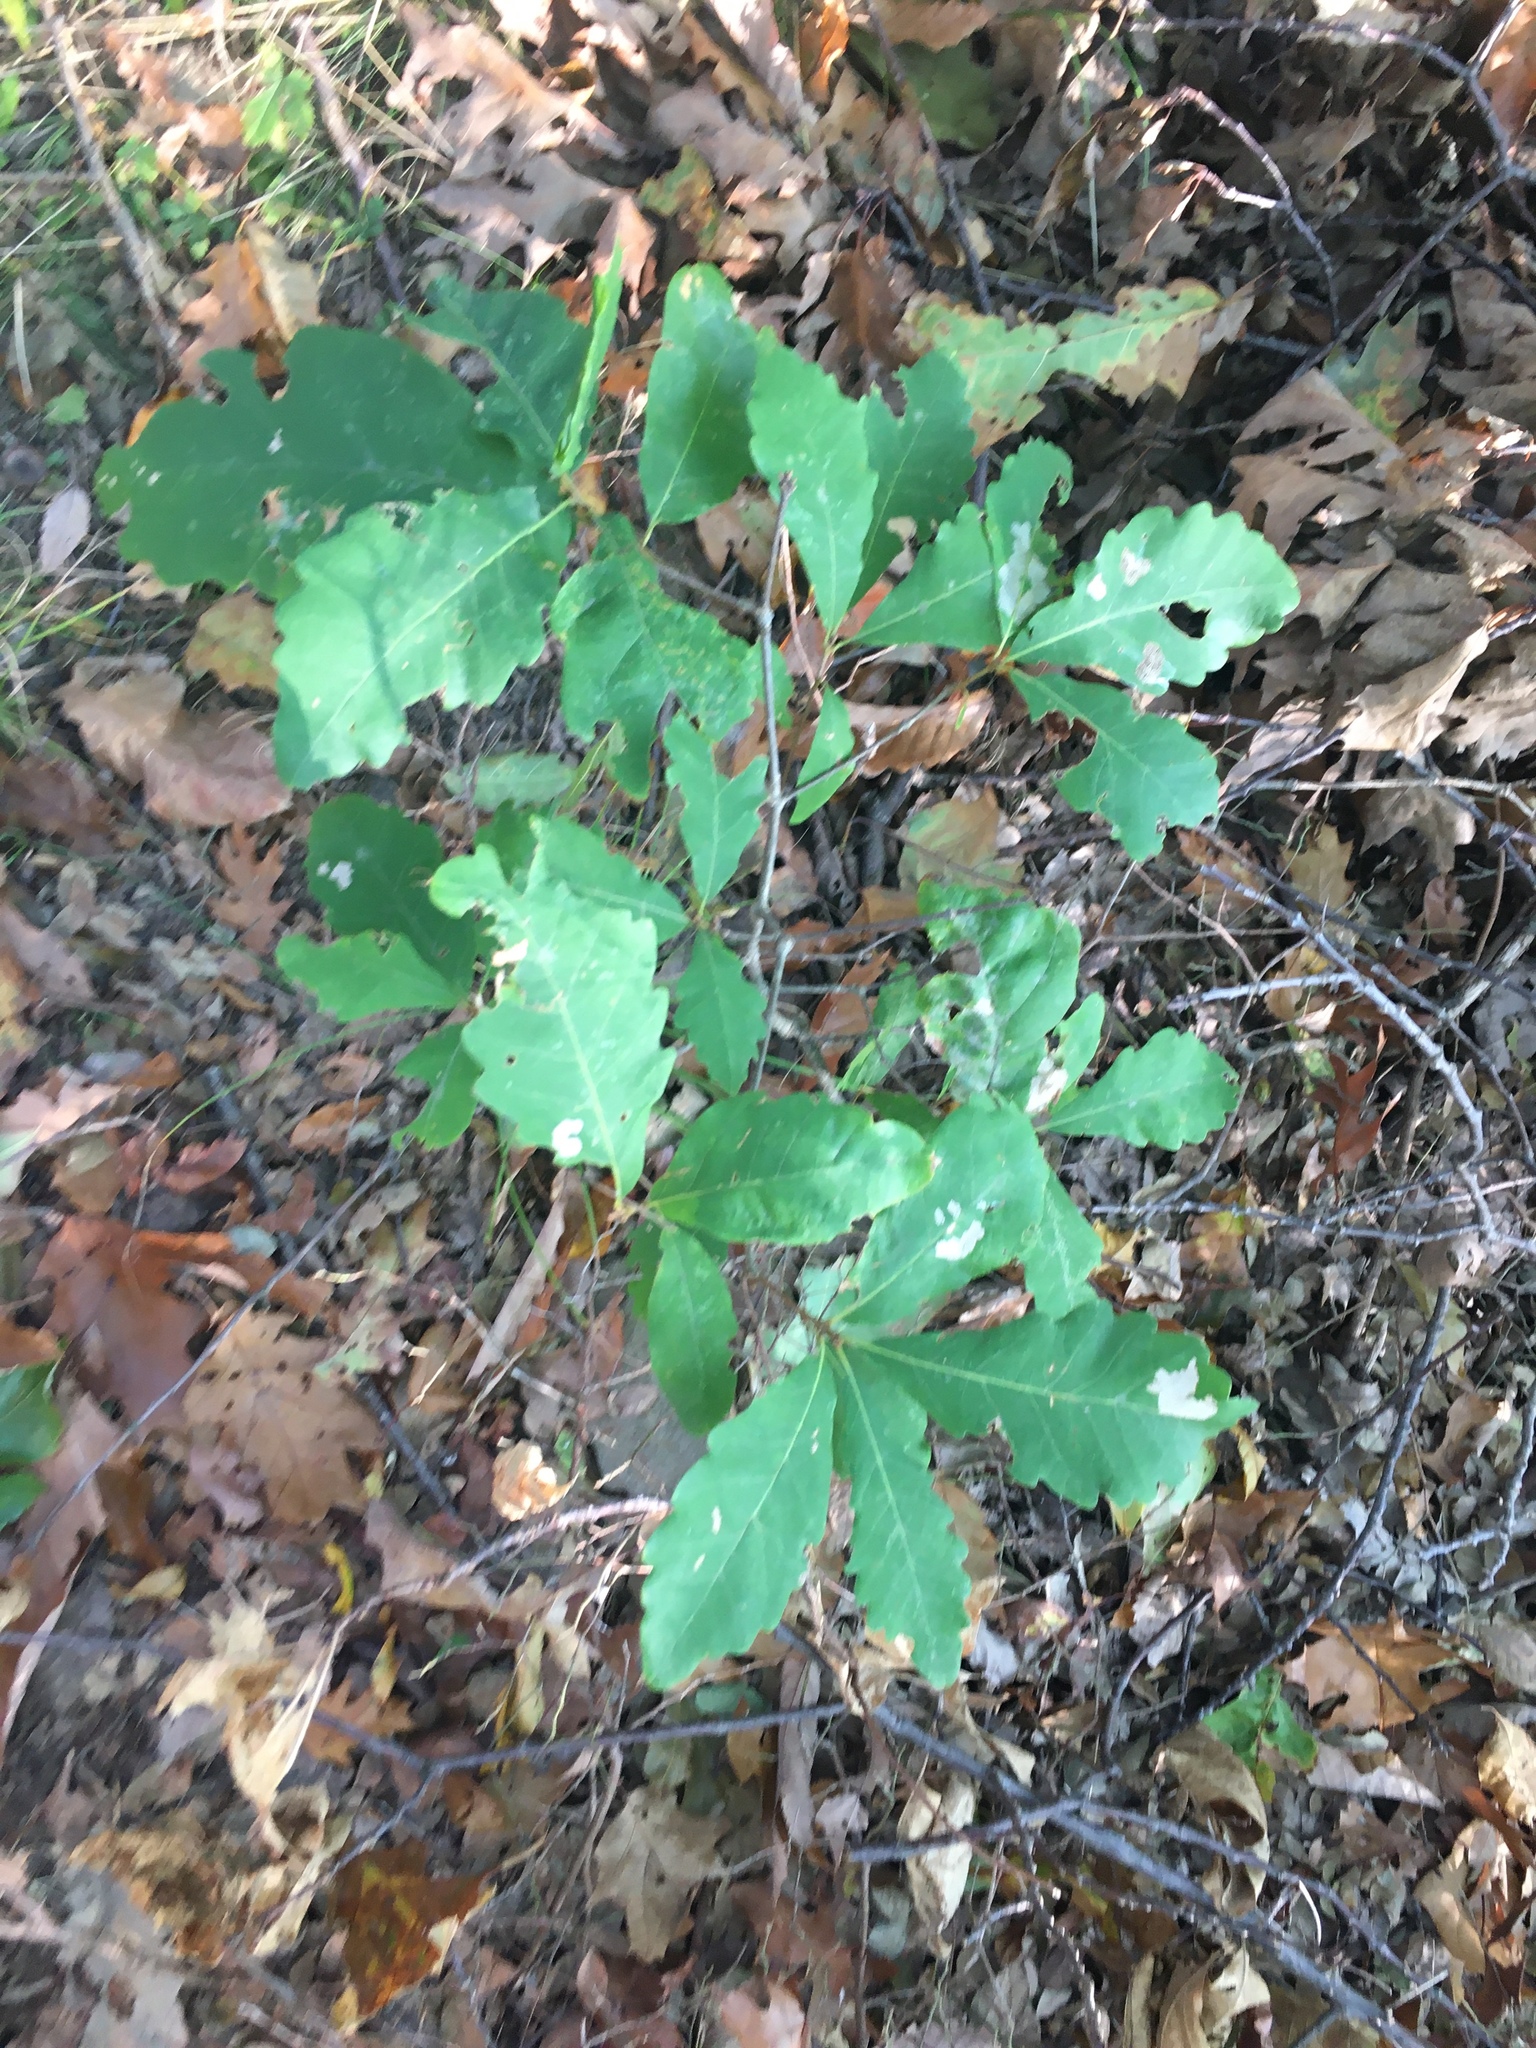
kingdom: Plantae
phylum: Tracheophyta
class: Magnoliopsida
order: Fagales
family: Fagaceae
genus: Quercus
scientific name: Quercus alba
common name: White oak
